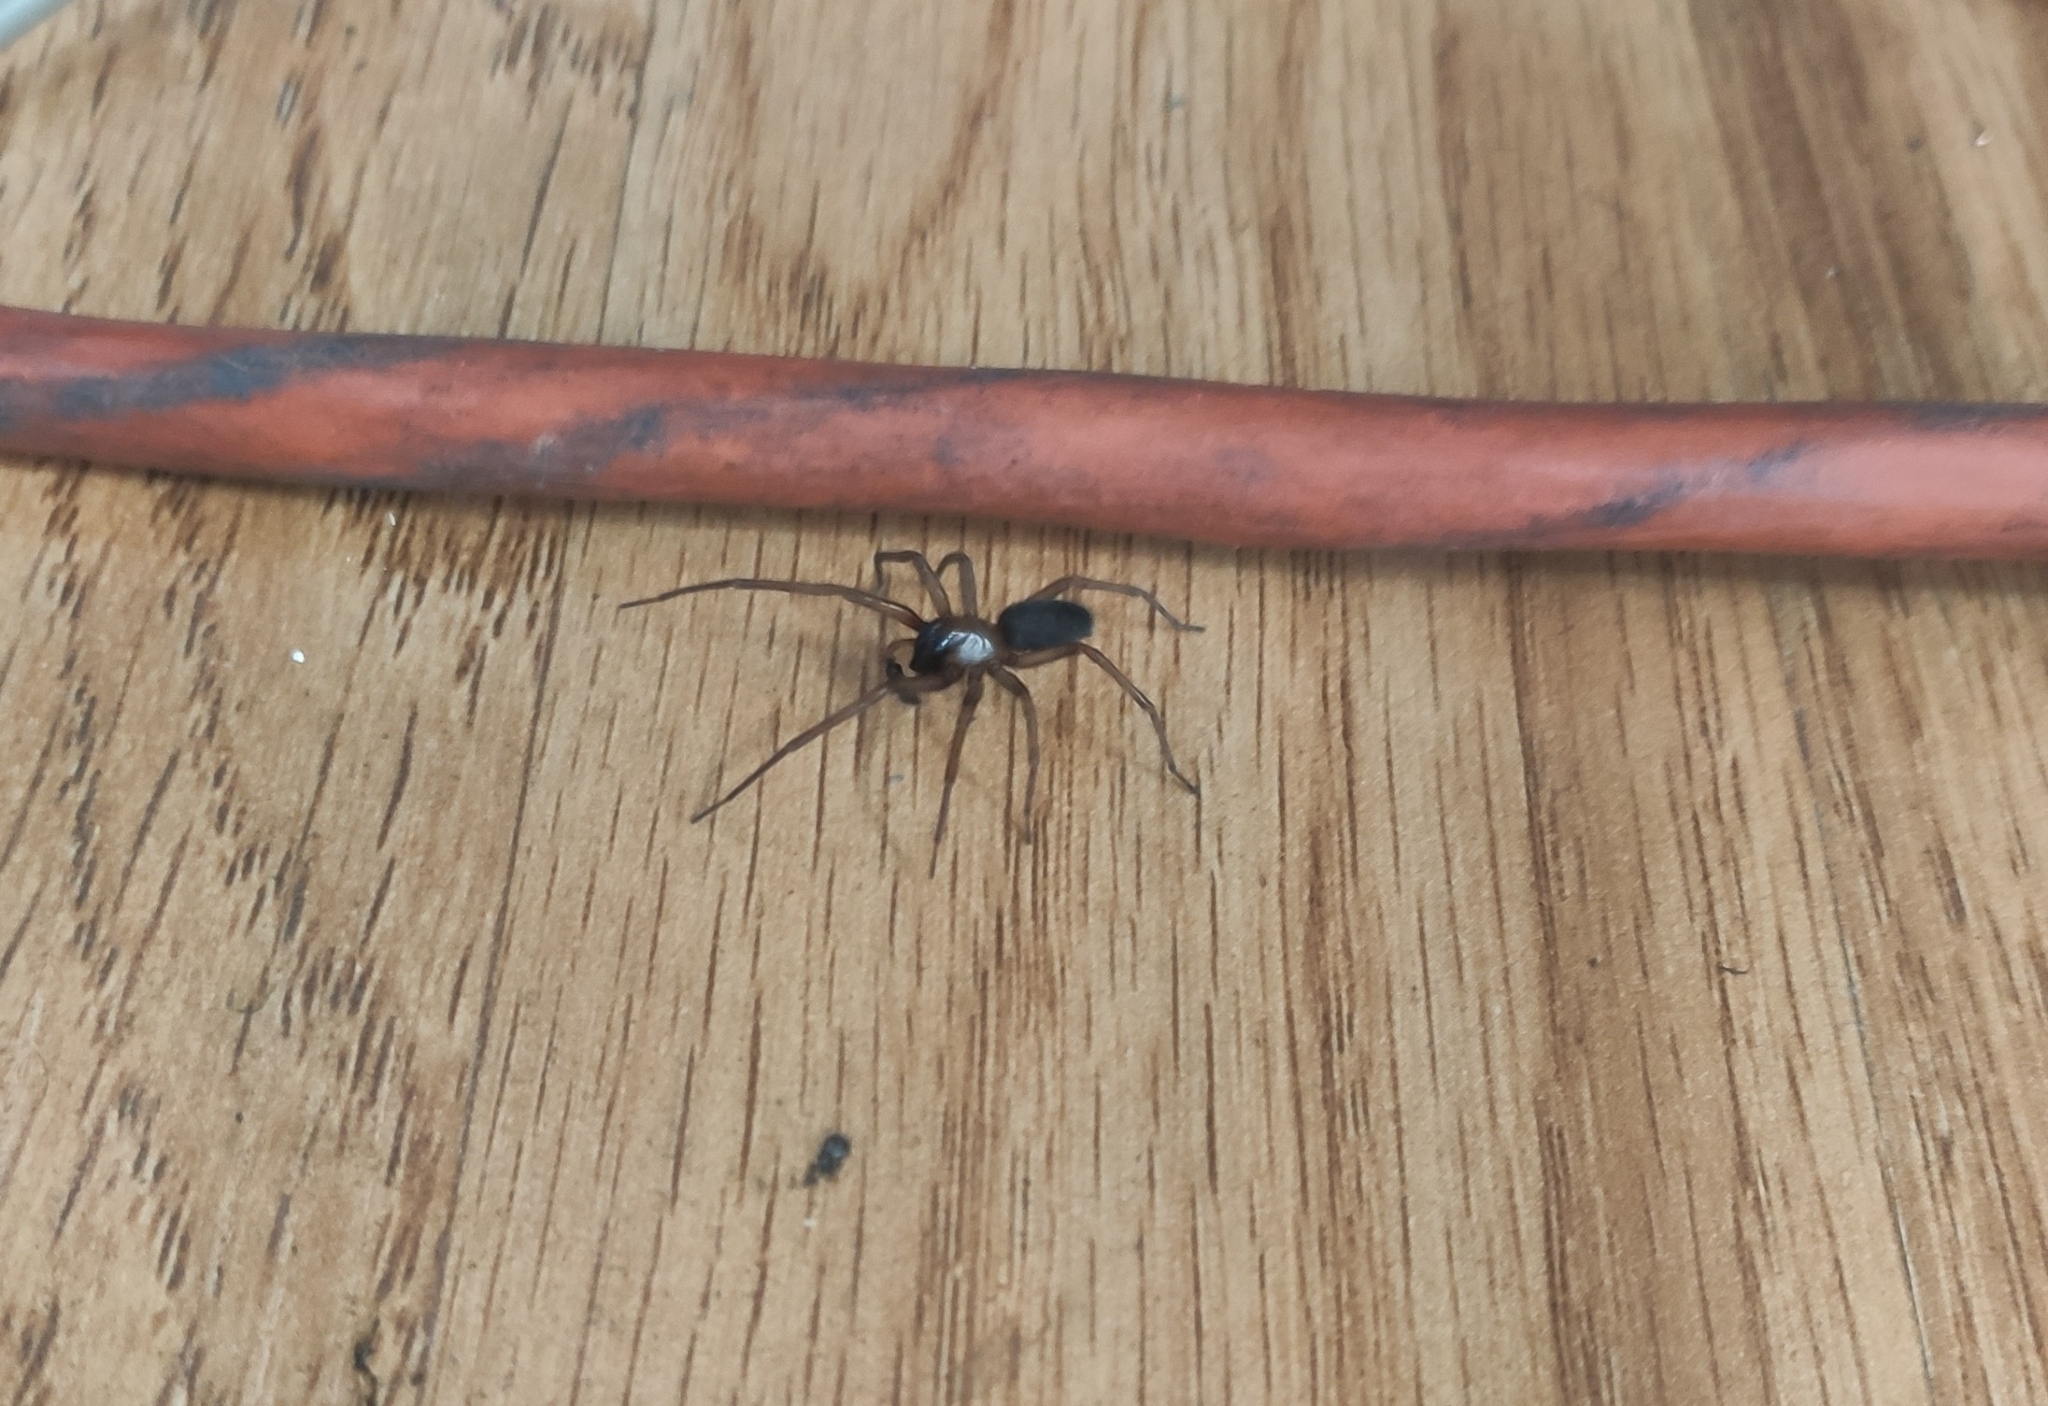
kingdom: Animalia
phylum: Arthropoda
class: Arachnida
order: Araneae
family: Desidae
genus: Metaltella
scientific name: Metaltella simoni
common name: Cribellate spider
